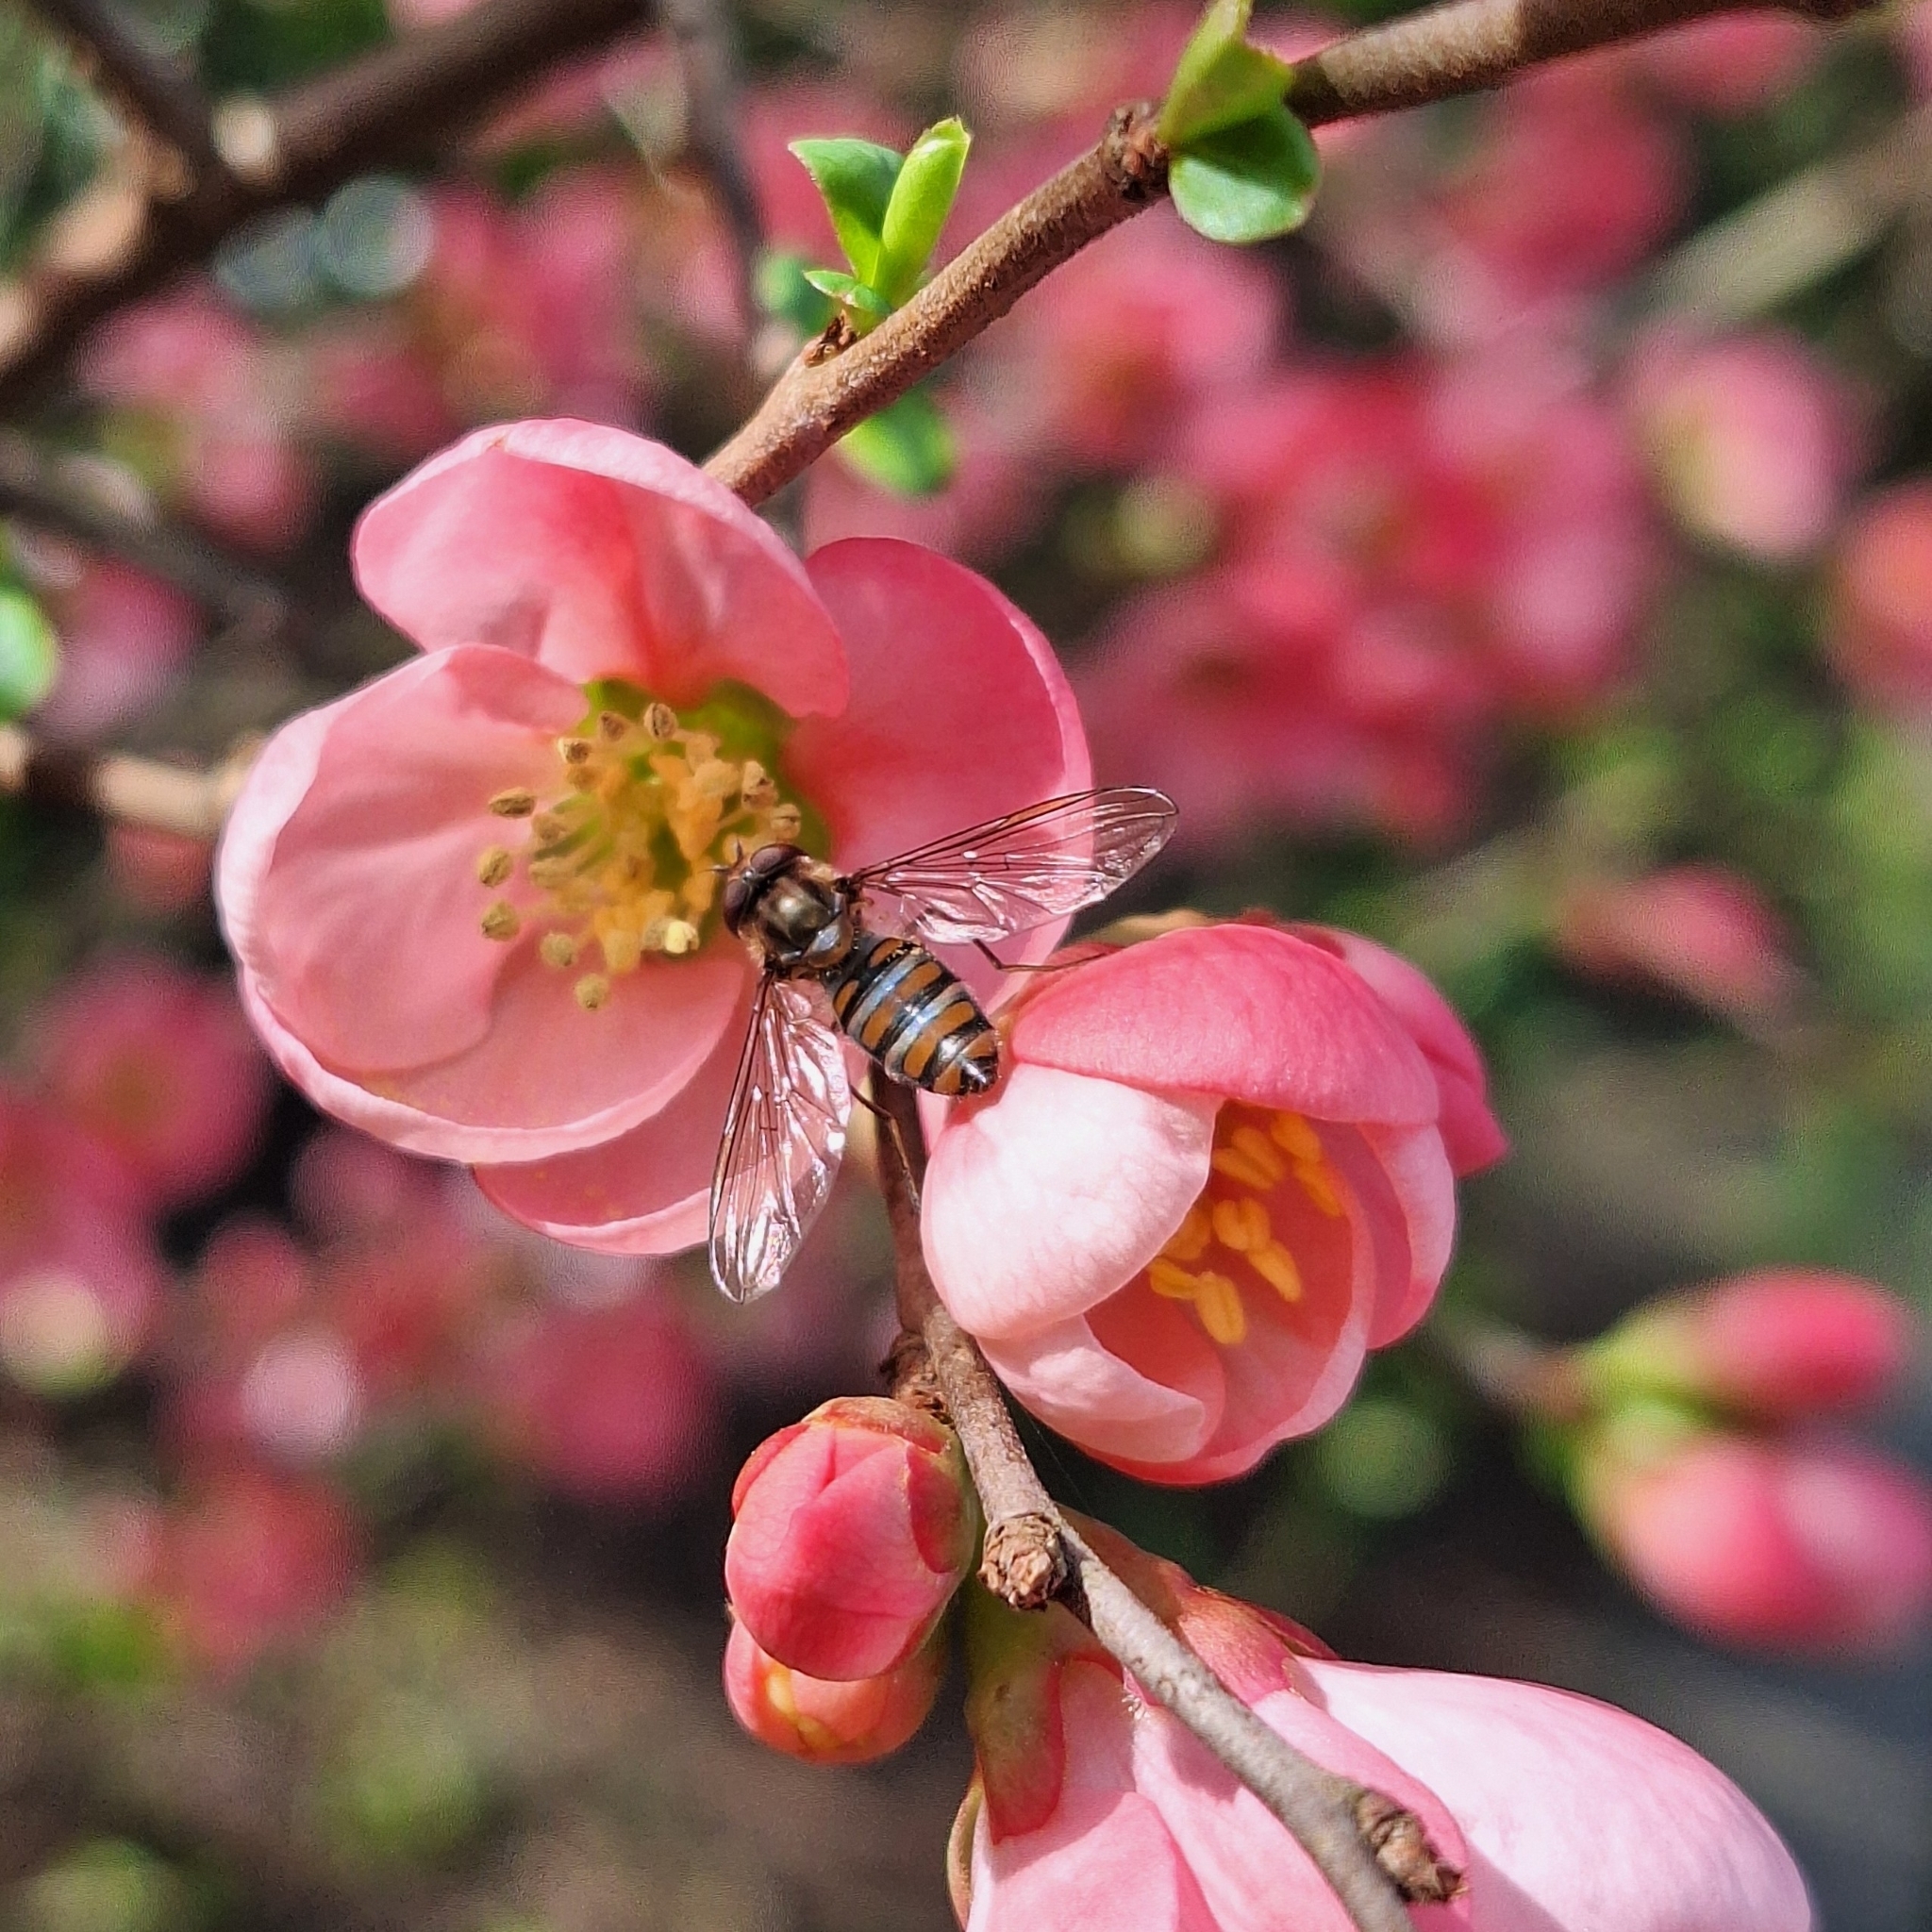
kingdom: Animalia
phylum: Arthropoda
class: Insecta
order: Diptera
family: Syrphidae
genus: Episyrphus
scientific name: Episyrphus balteatus
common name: Marmalade hoverfly
